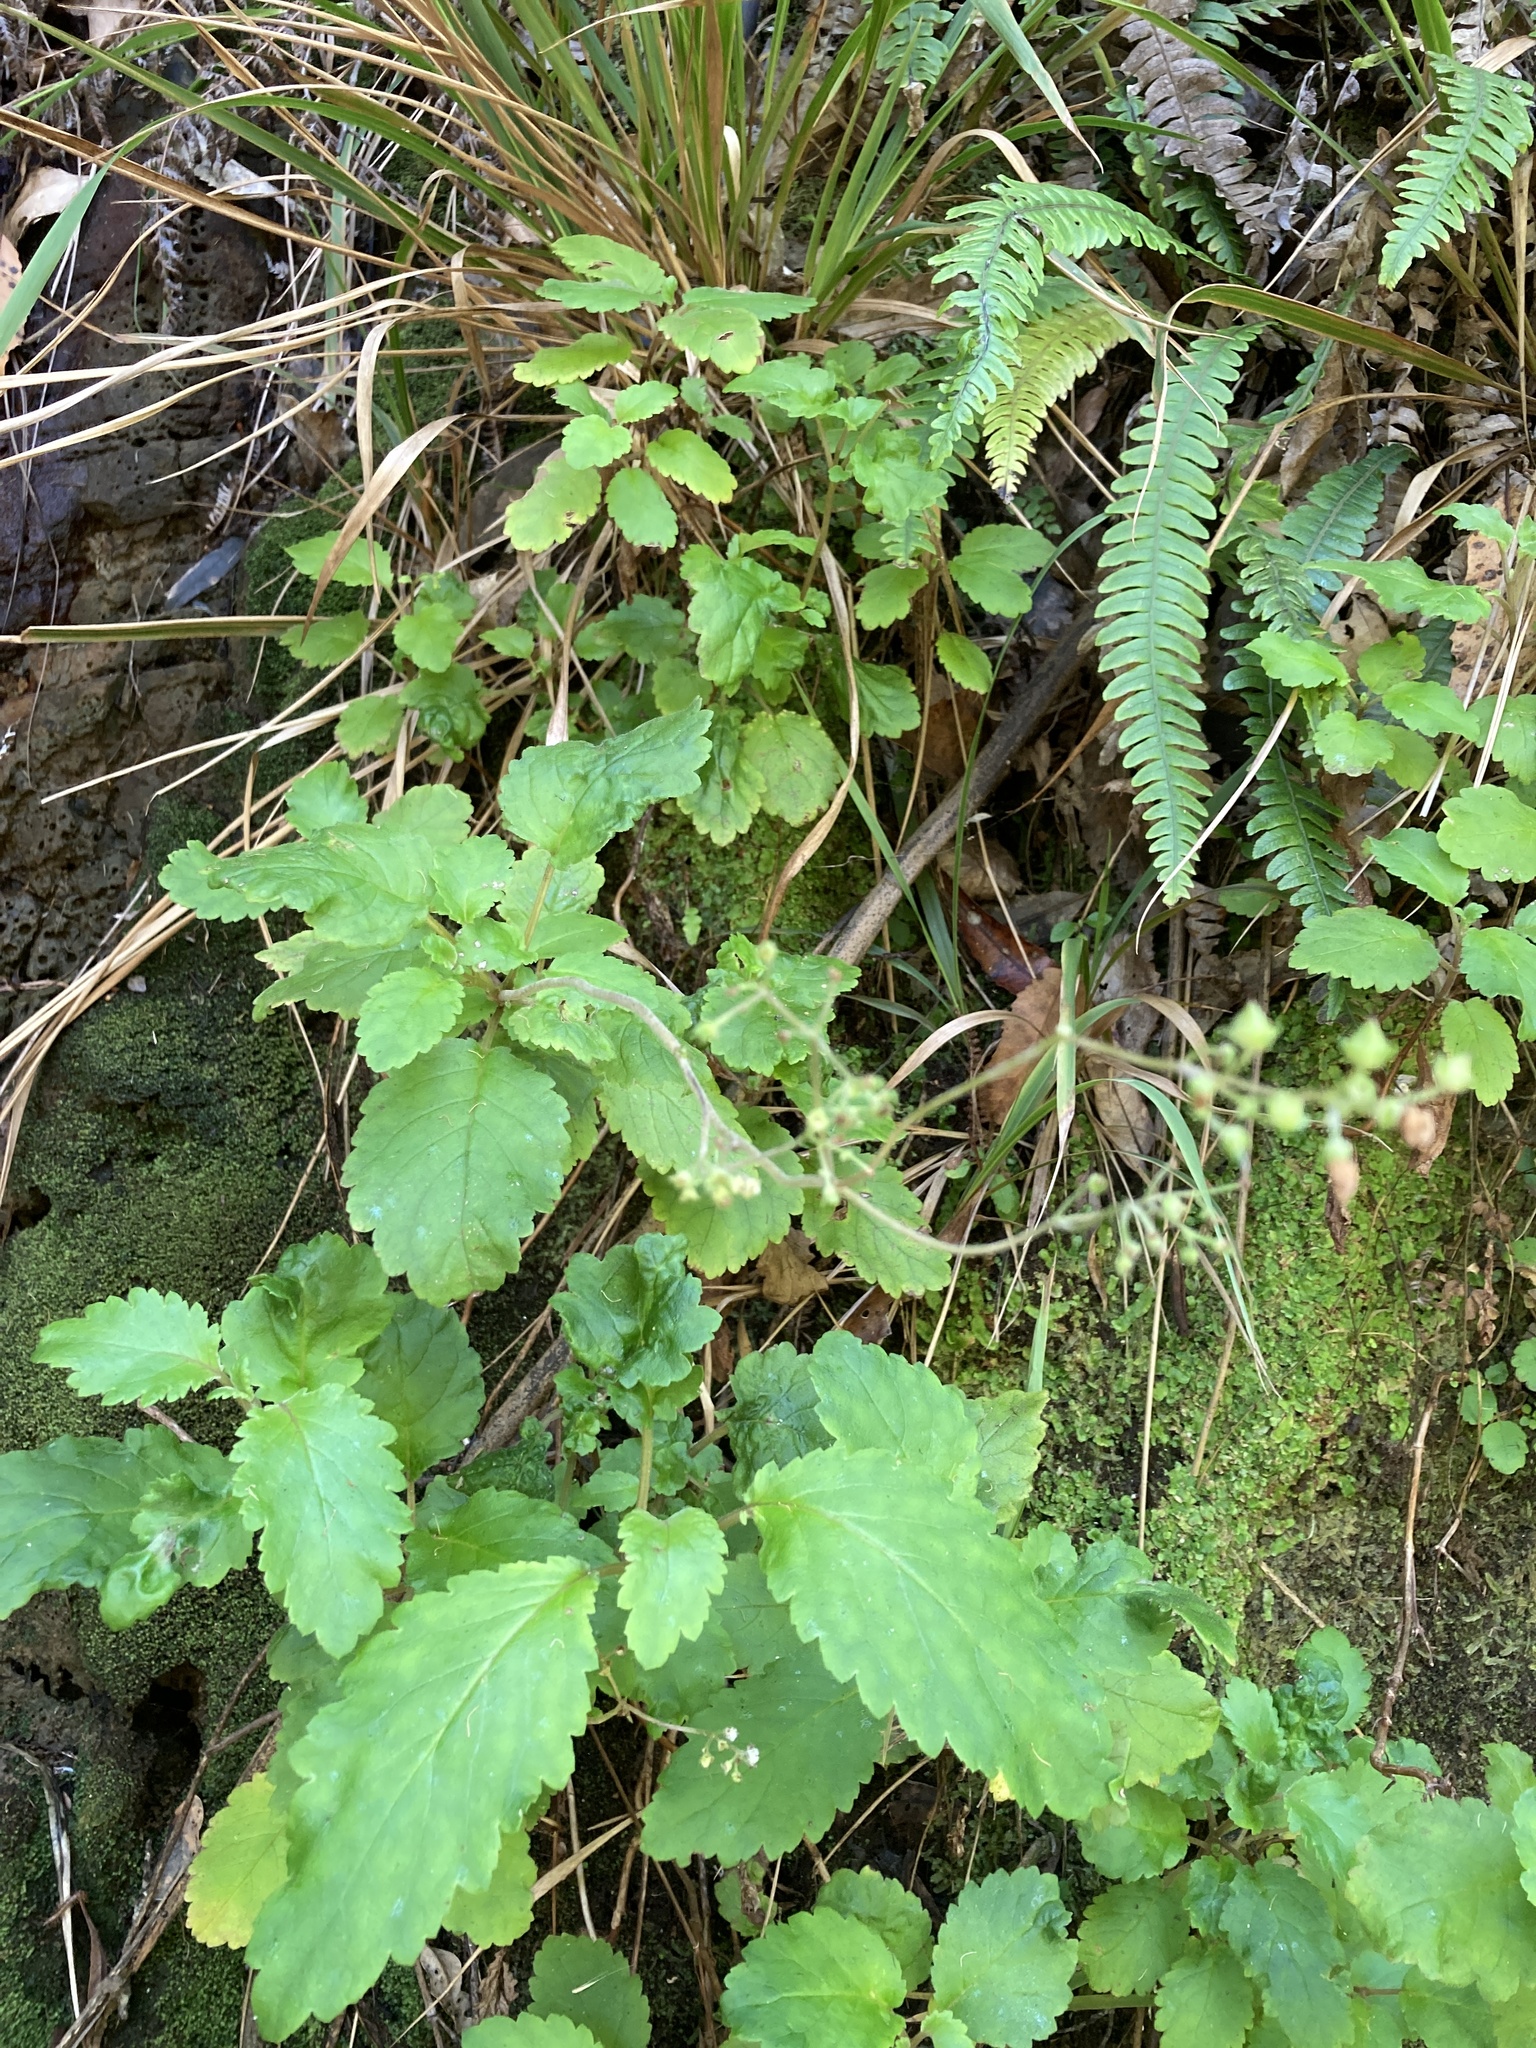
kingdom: Plantae
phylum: Tracheophyta
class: Magnoliopsida
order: Lamiales
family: Calceolariaceae
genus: Jovellana
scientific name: Jovellana sinclairii
